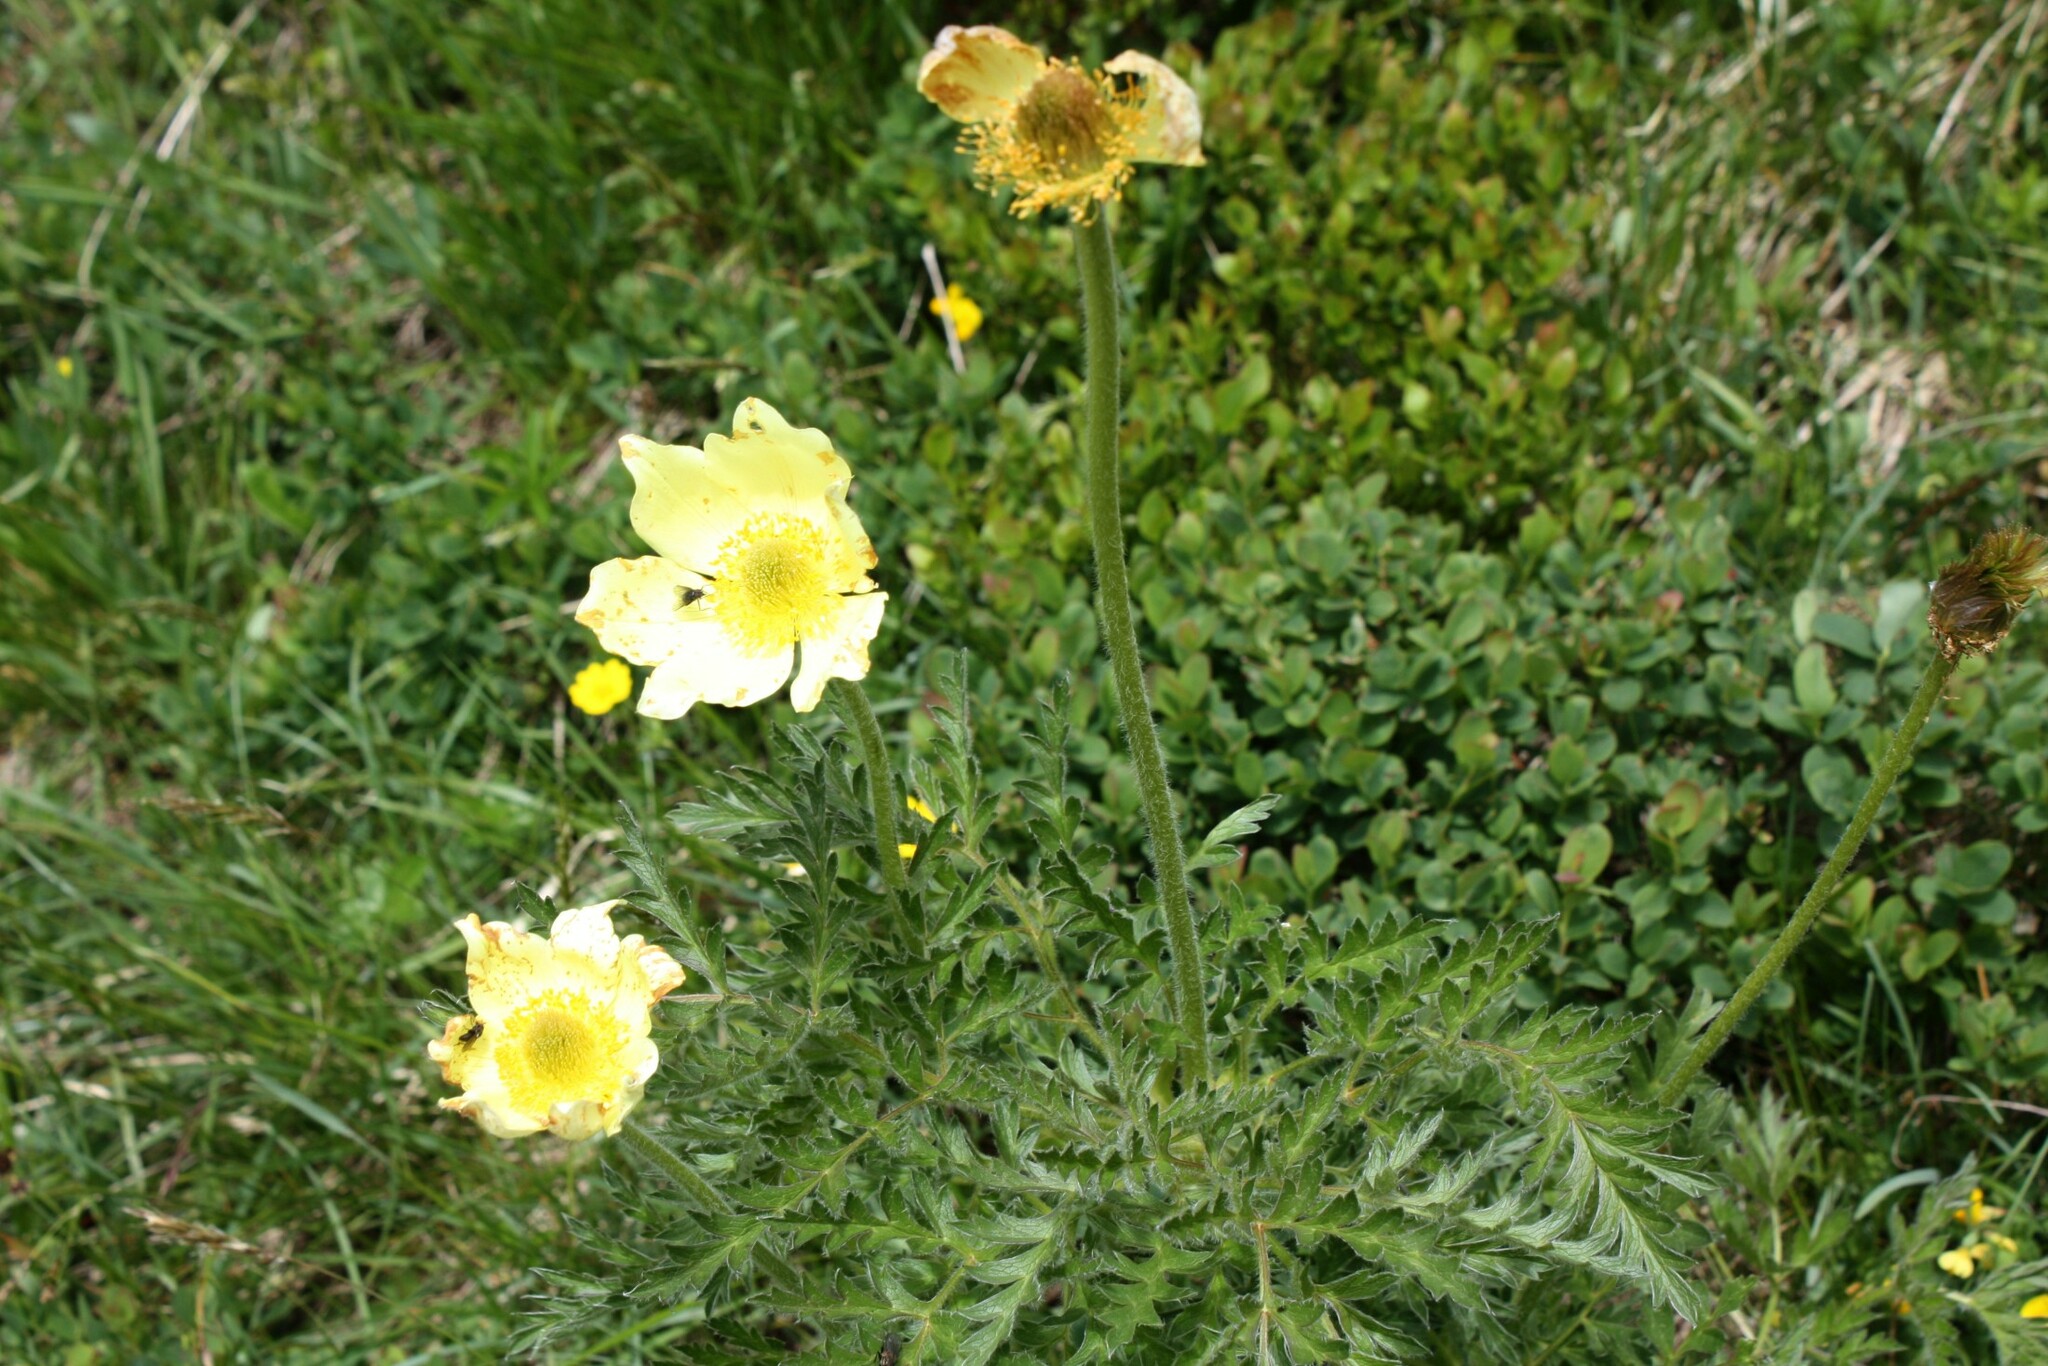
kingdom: Plantae
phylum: Tracheophyta
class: Magnoliopsida
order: Ranunculales
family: Ranunculaceae
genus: Pulsatilla
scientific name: Pulsatilla alpina
